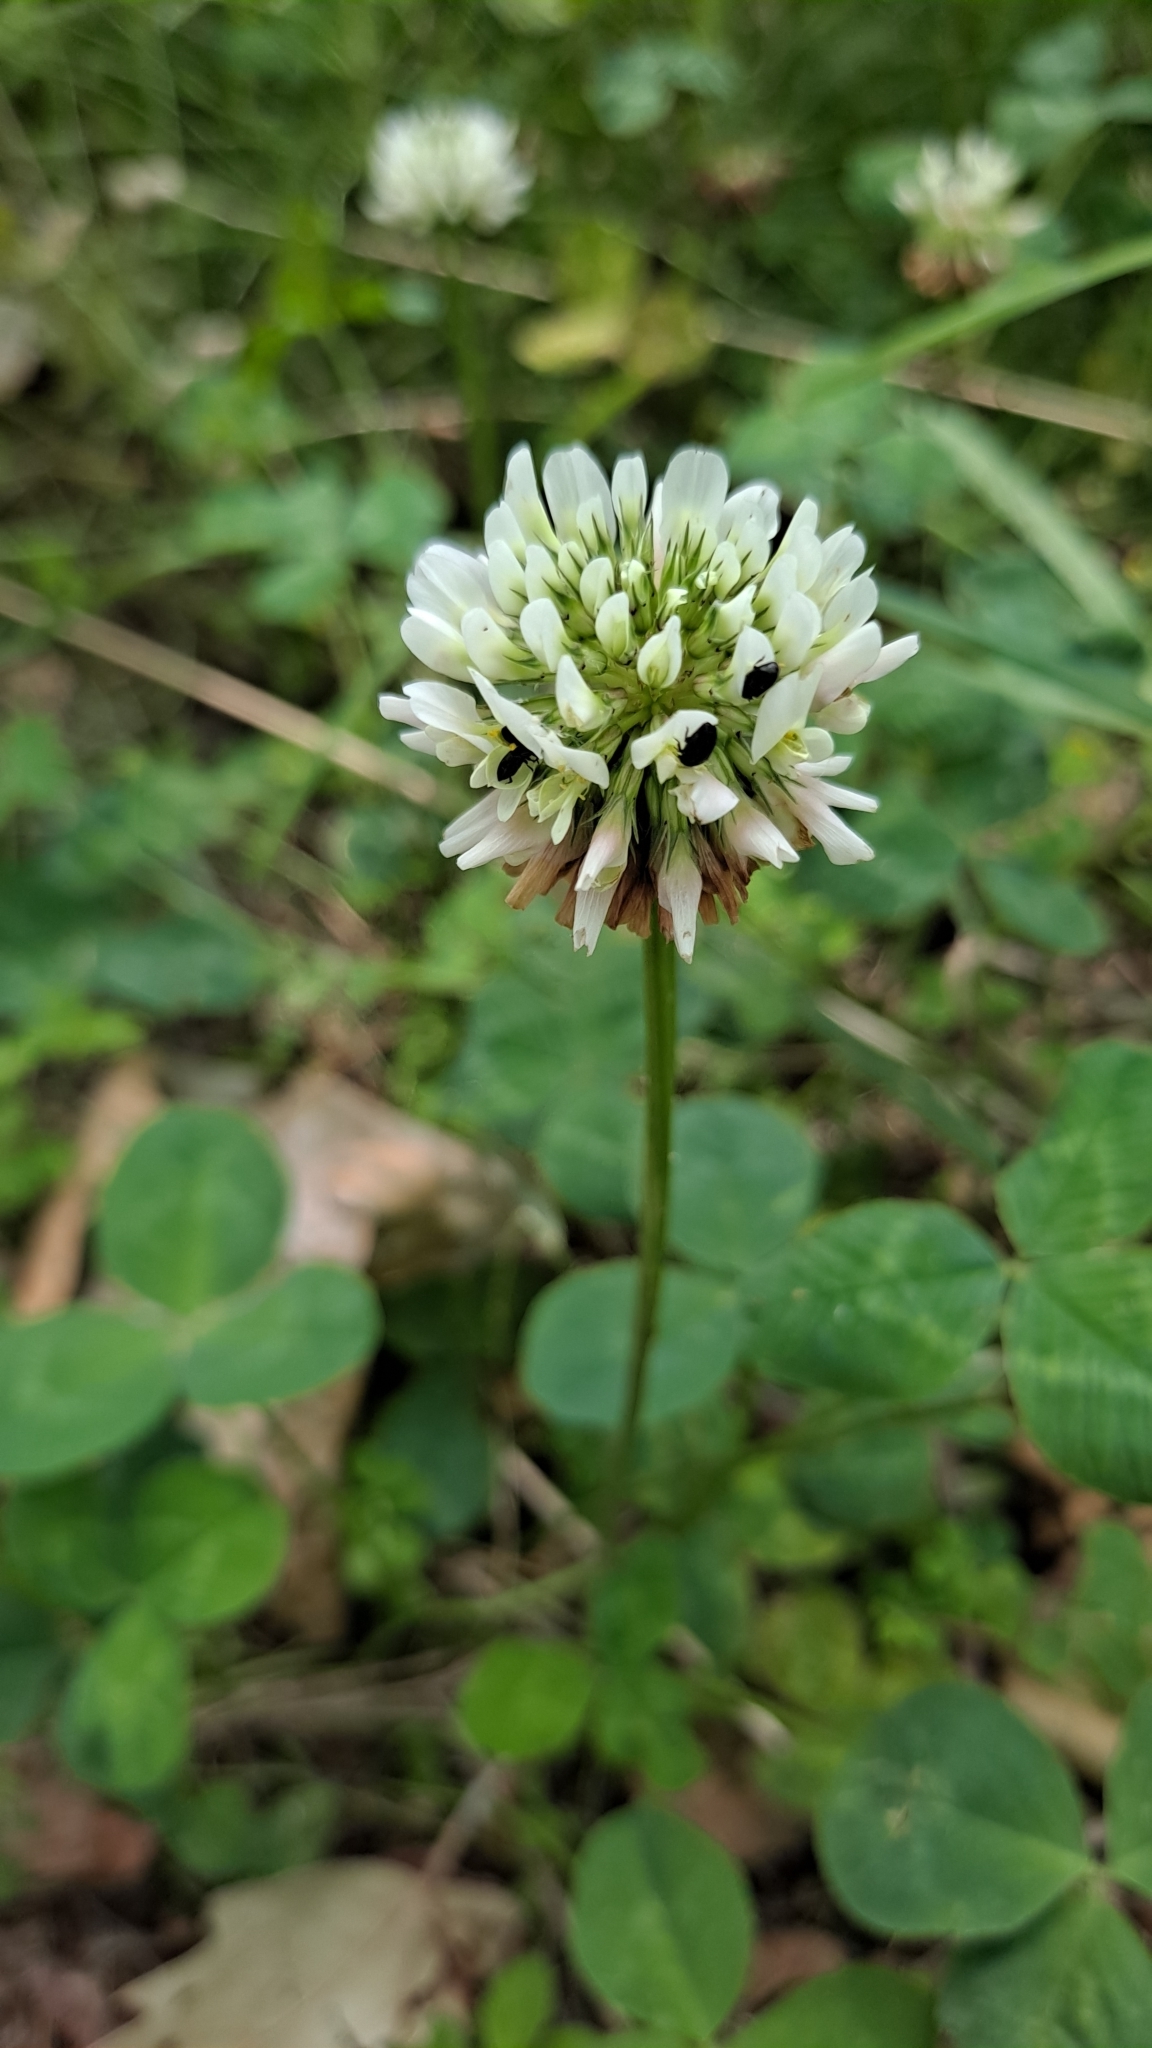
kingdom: Plantae
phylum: Tracheophyta
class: Magnoliopsida
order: Fabales
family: Fabaceae
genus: Trifolium
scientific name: Trifolium repens
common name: White clover
